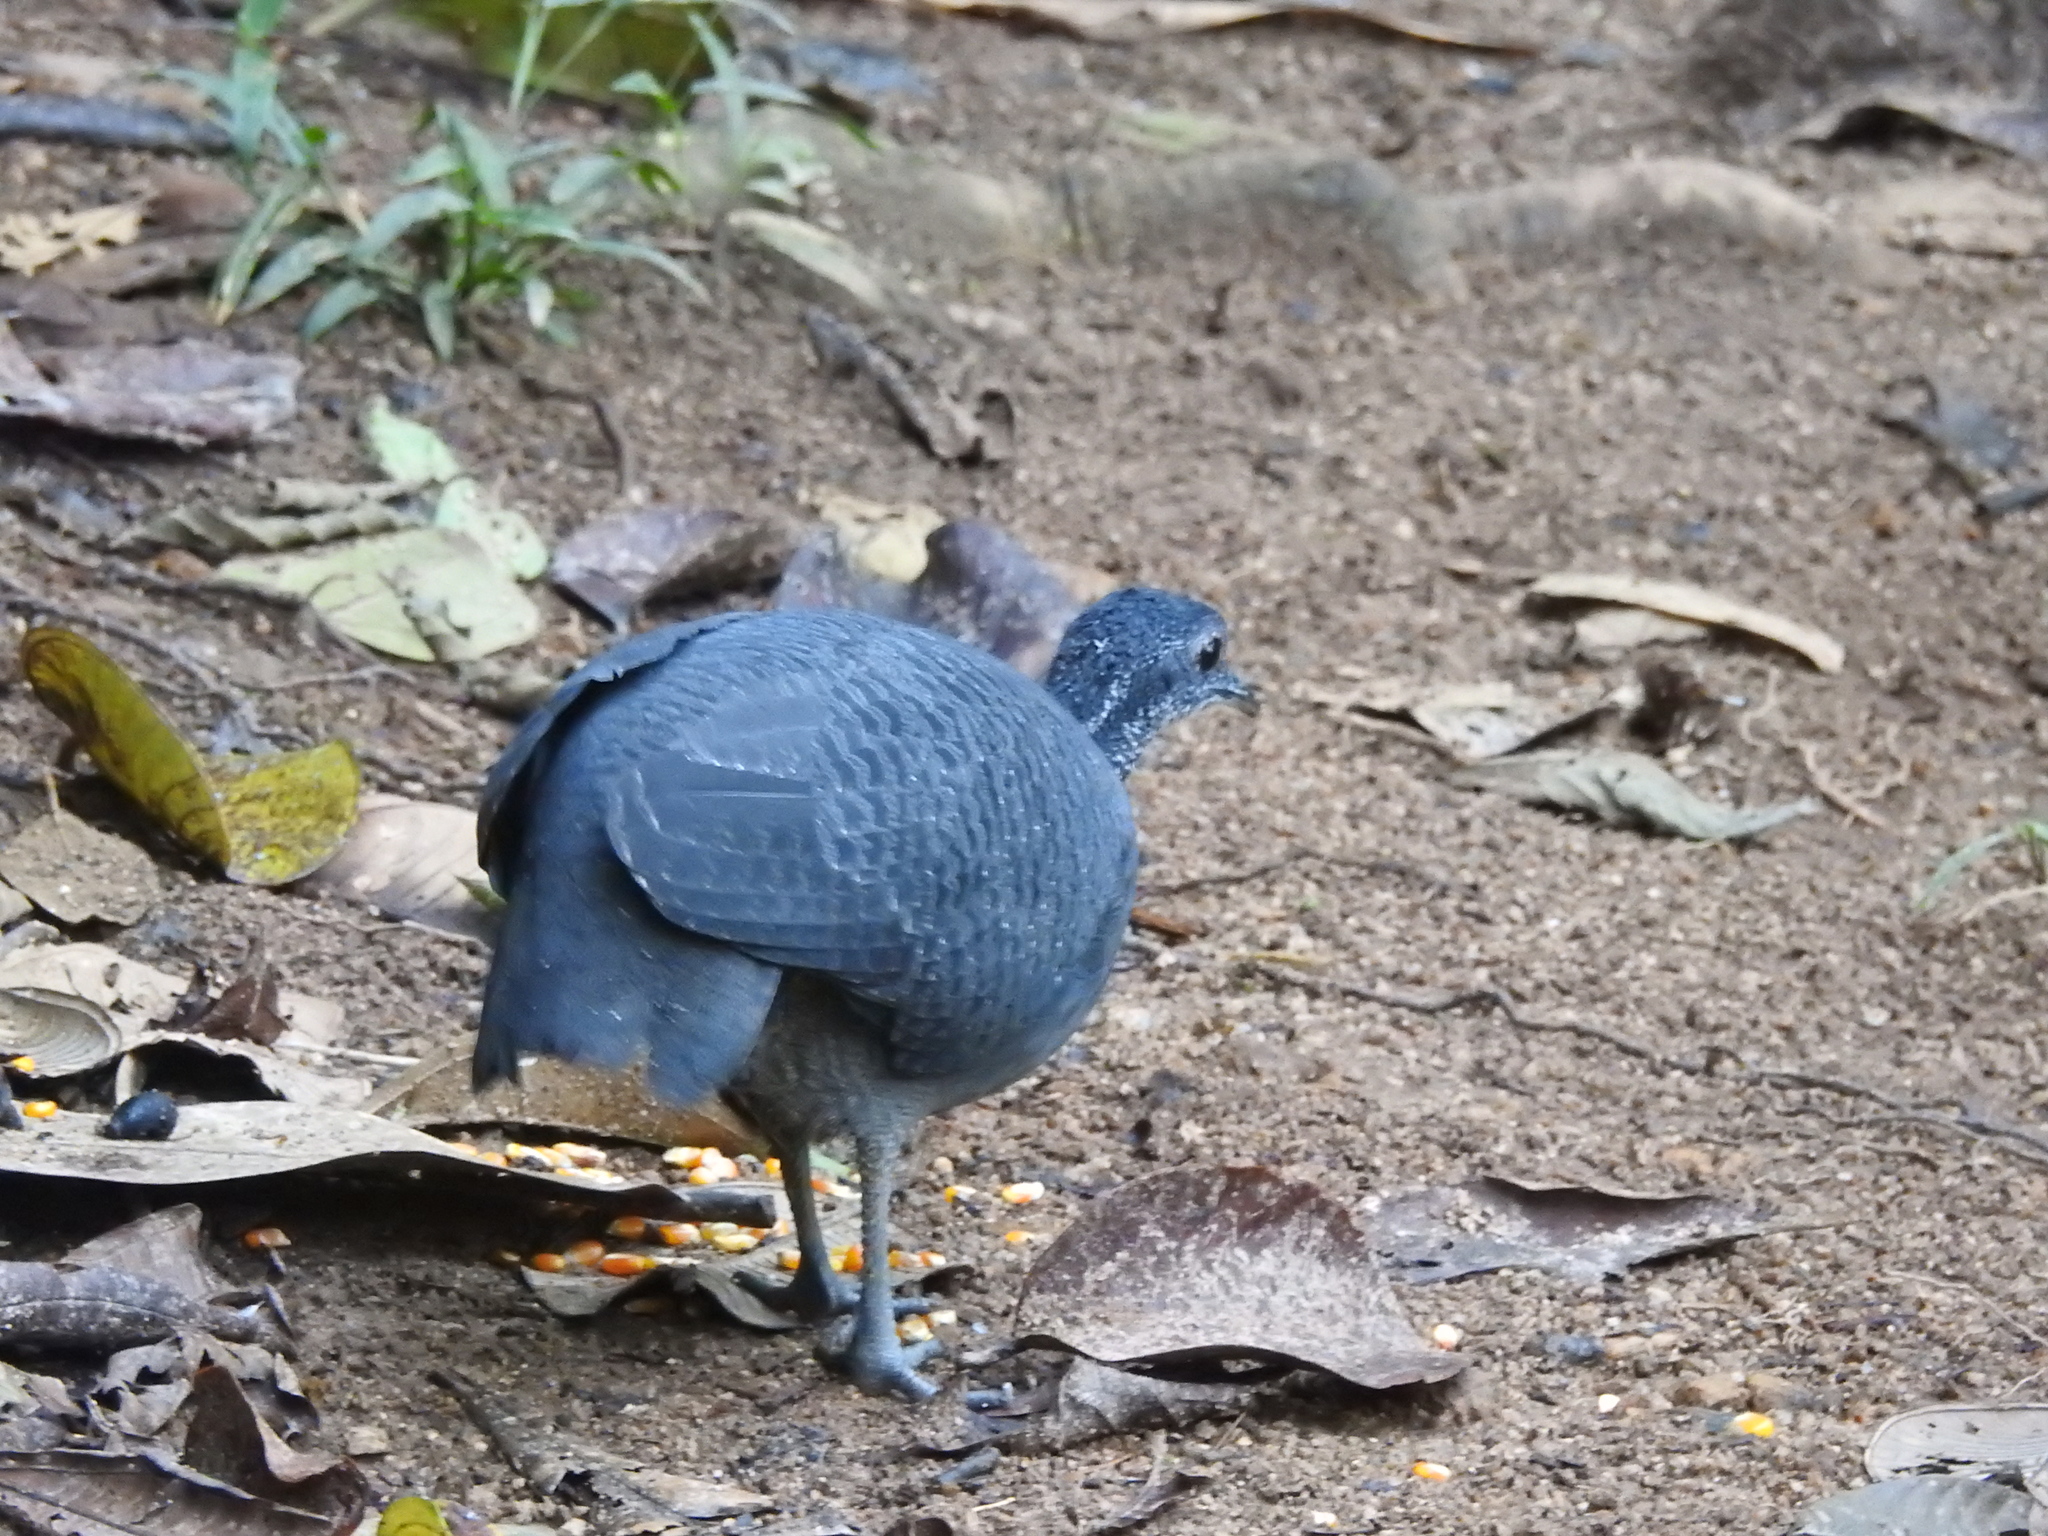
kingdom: Animalia
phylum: Chordata
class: Aves
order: Tinamiformes
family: Tinamidae
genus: Tinamus
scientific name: Tinamus tao
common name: Grey tinamou
